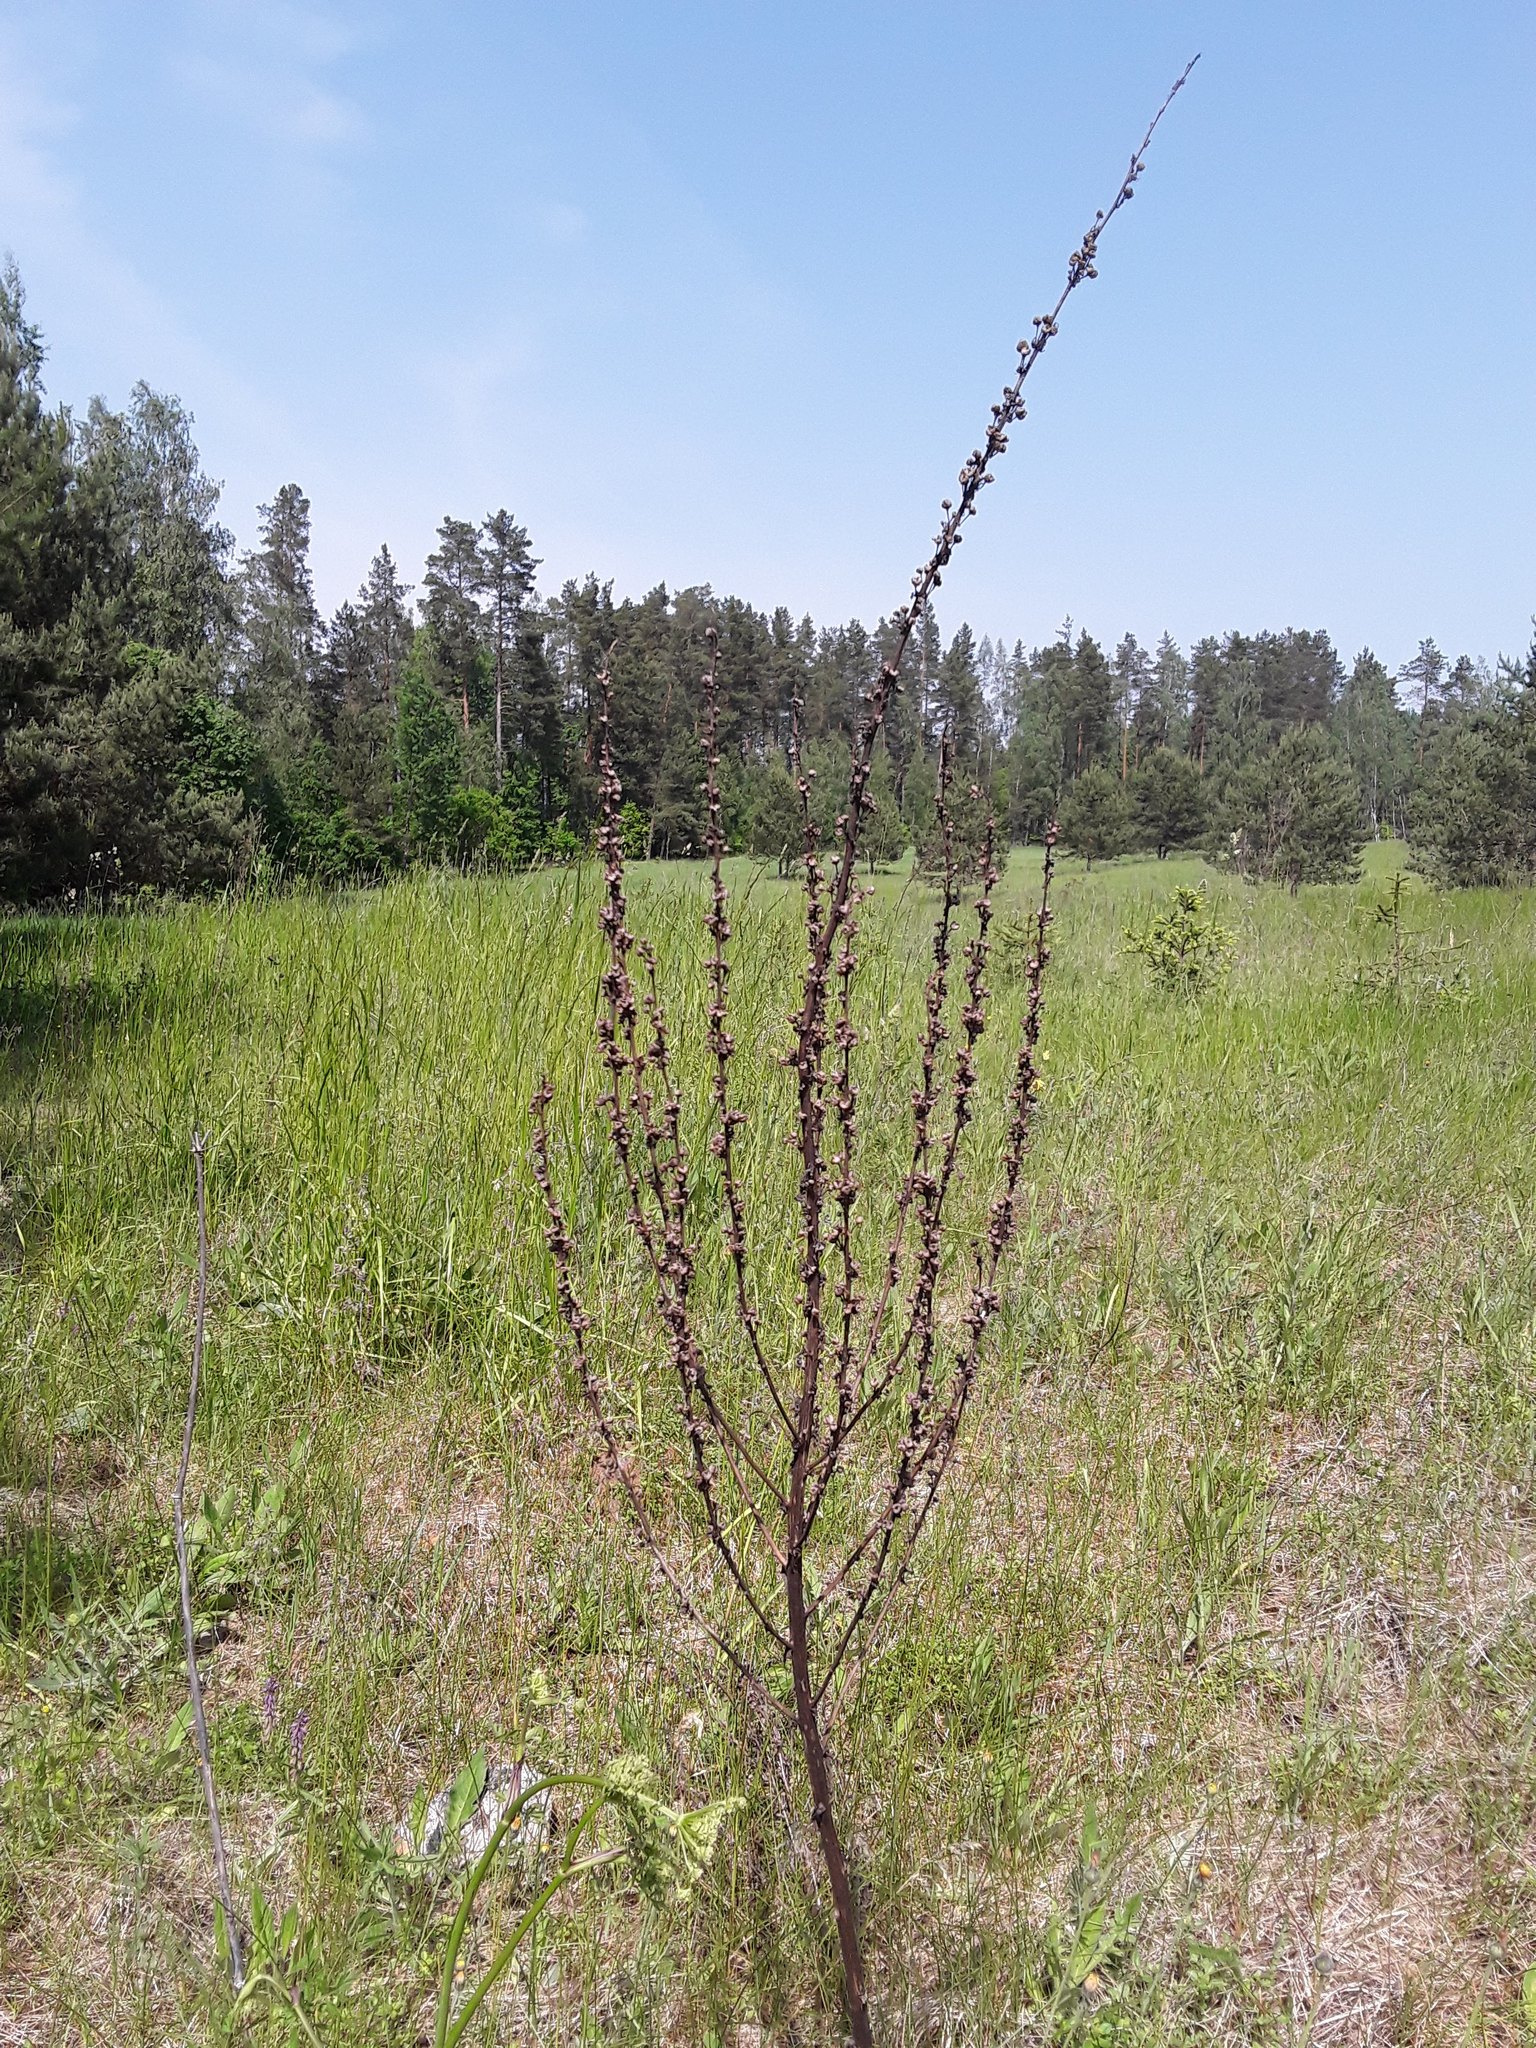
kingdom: Plantae
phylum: Tracheophyta
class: Magnoliopsida
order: Lamiales
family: Scrophulariaceae
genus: Verbascum
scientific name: Verbascum nigrum
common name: Dark mullein
